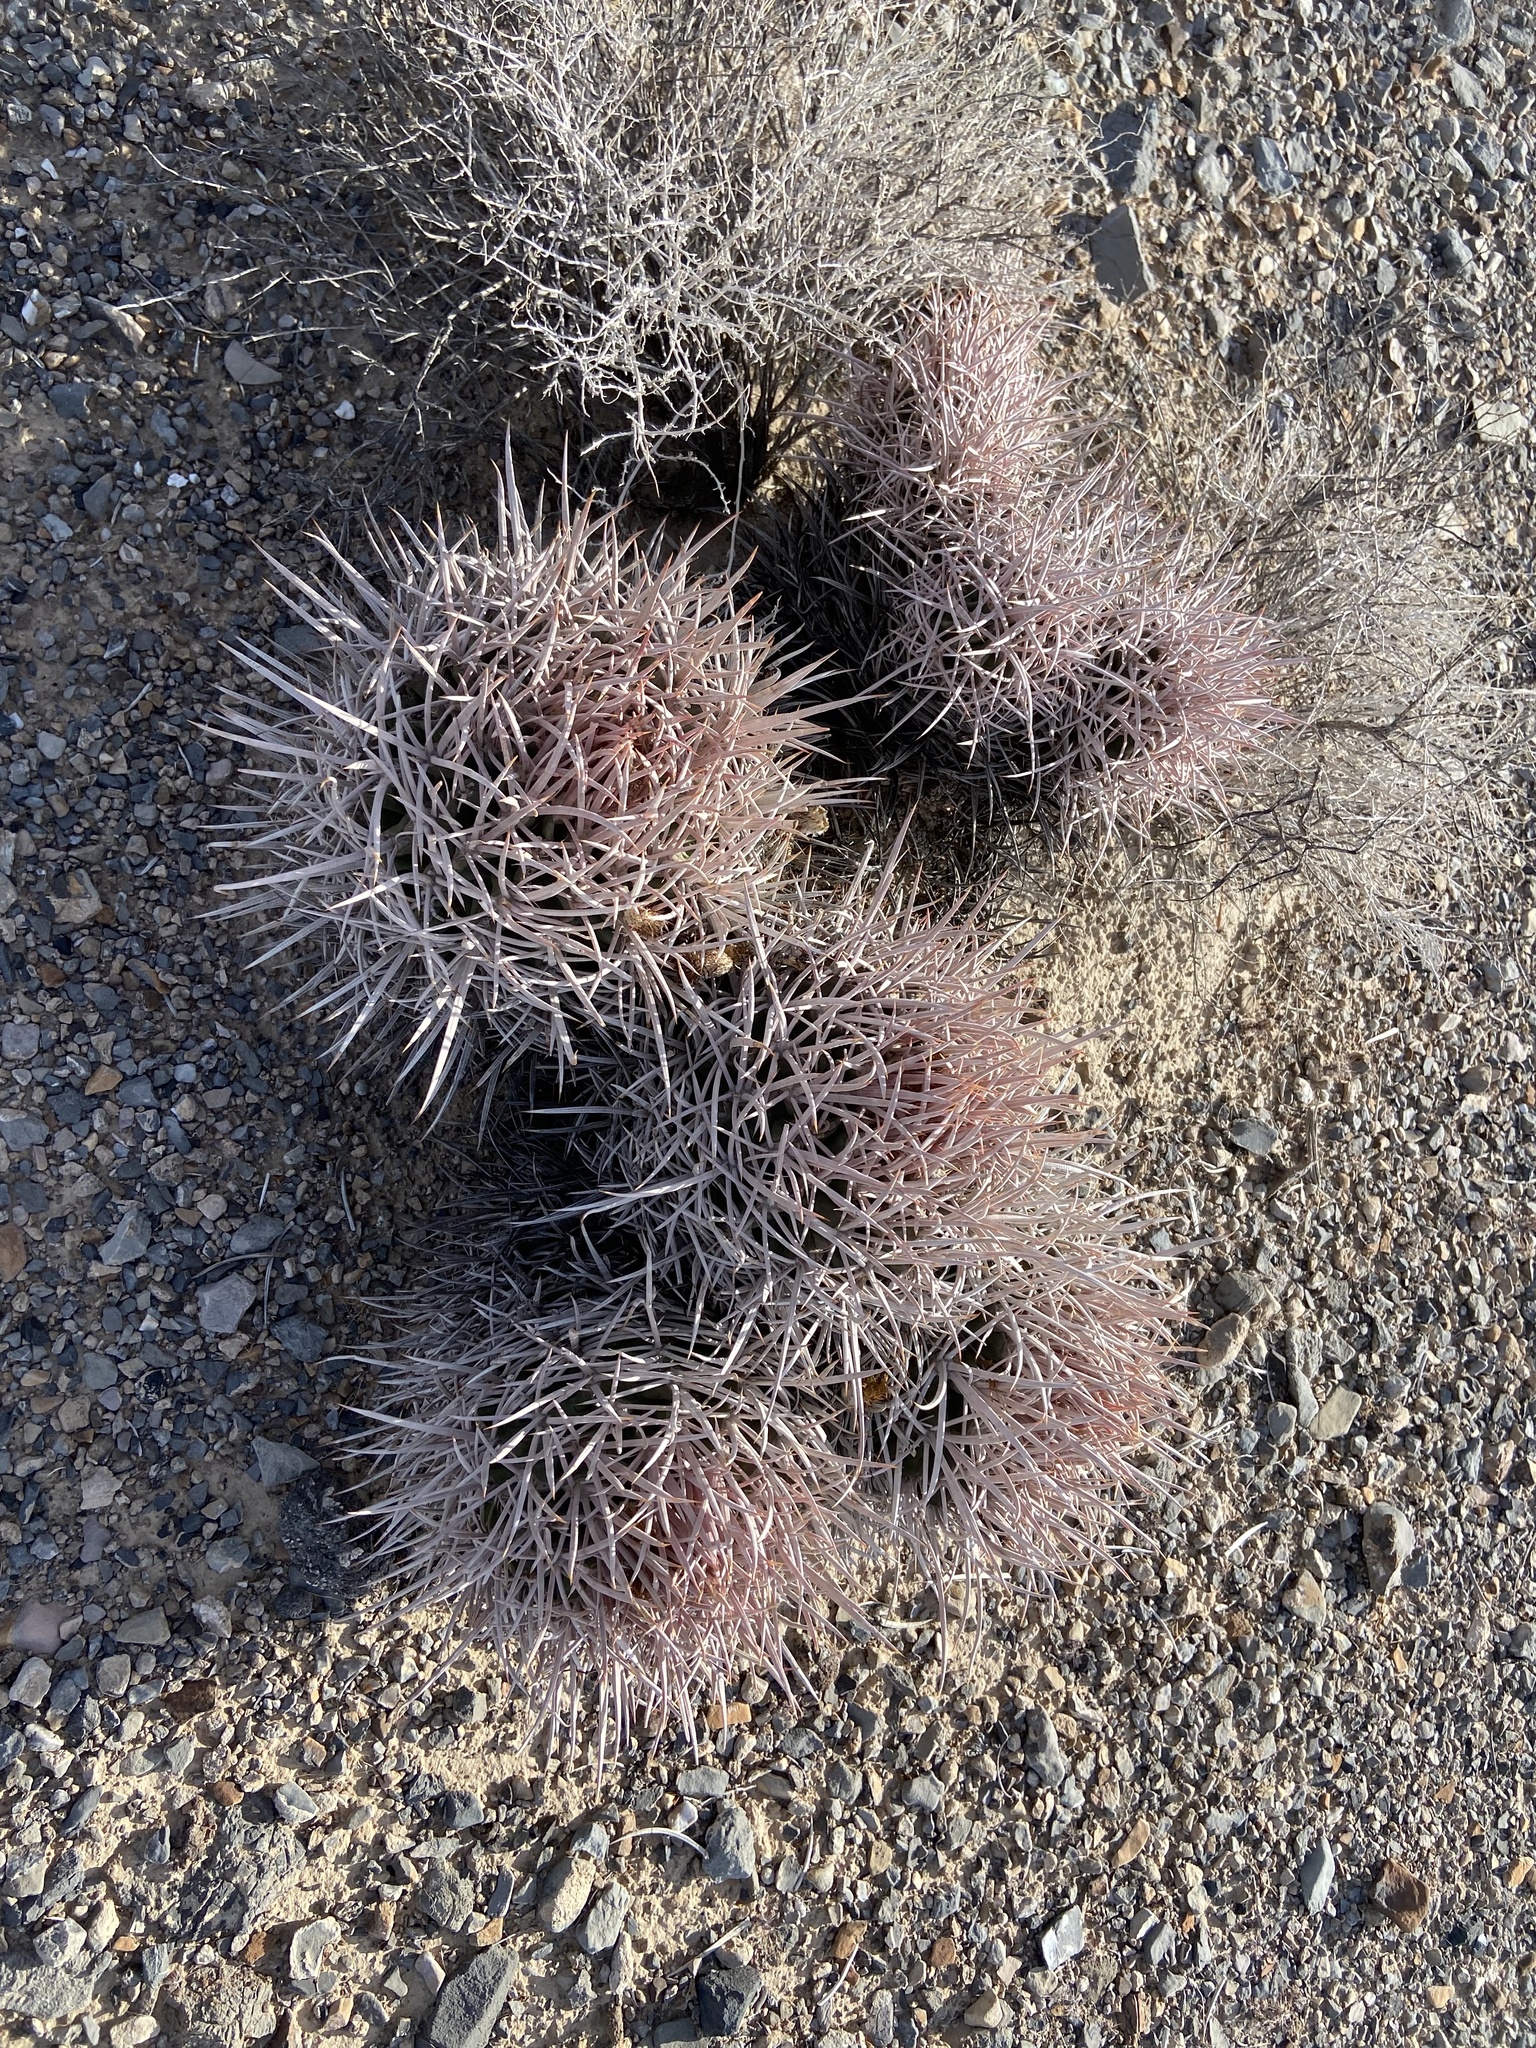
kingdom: Plantae
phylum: Tracheophyta
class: Magnoliopsida
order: Caryophyllales
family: Cactaceae
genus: Echinocactus
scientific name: Echinocactus polycephalus
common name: Cottontop cactus
